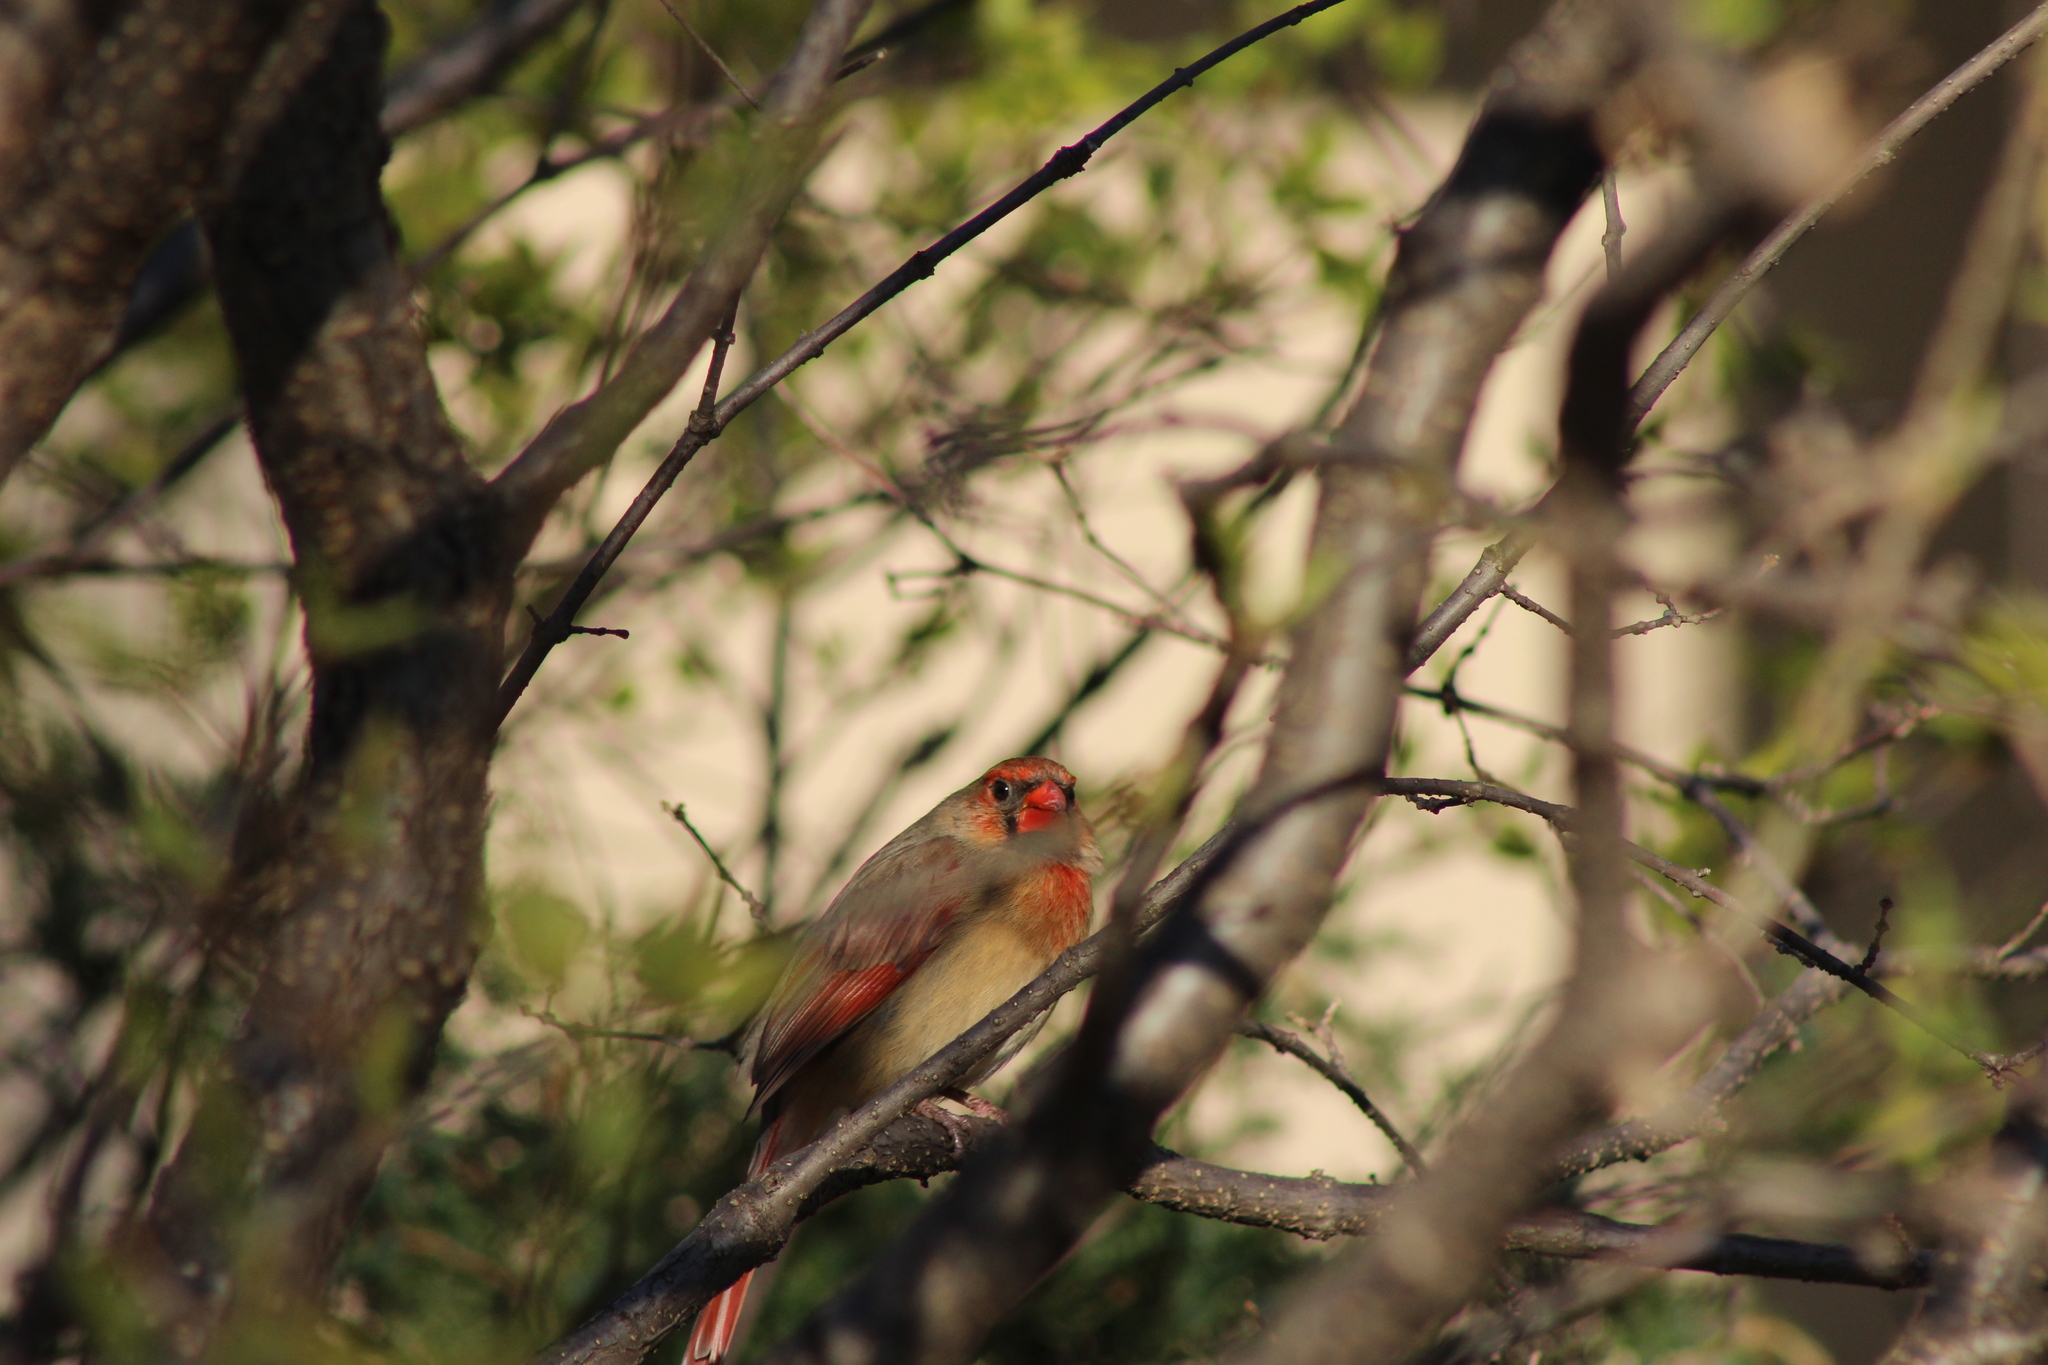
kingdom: Animalia
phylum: Chordata
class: Aves
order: Passeriformes
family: Cardinalidae
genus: Cardinalis
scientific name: Cardinalis cardinalis
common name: Northern cardinal
